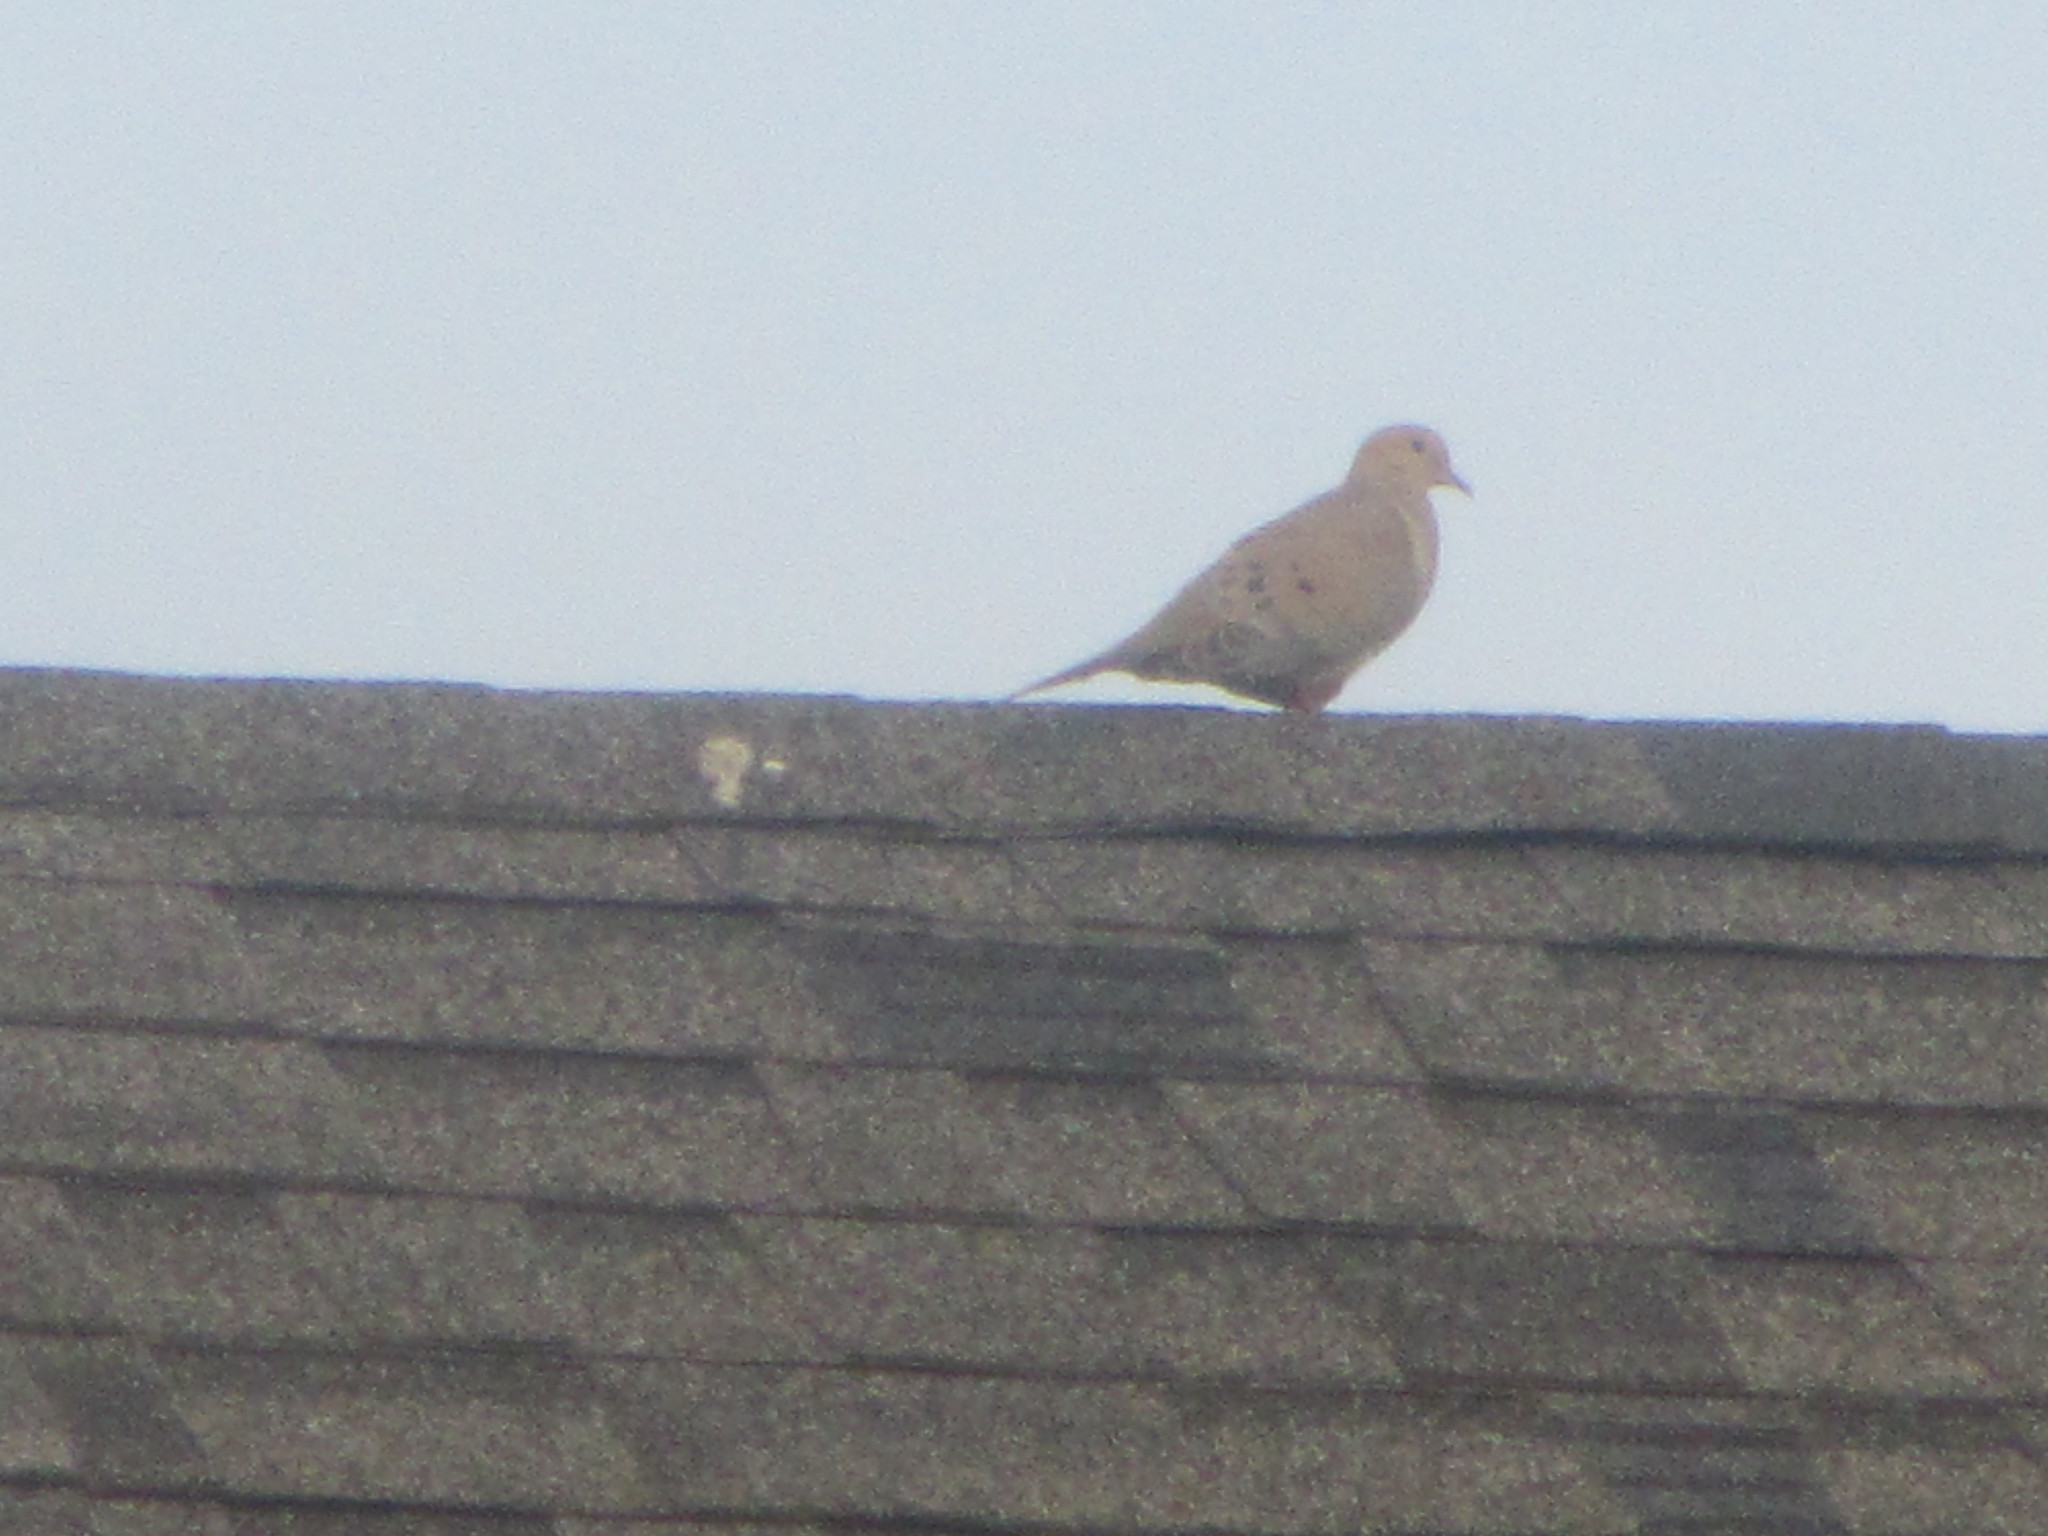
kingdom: Animalia
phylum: Chordata
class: Aves
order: Columbiformes
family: Columbidae
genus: Zenaida
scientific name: Zenaida macroura
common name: Mourning dove
